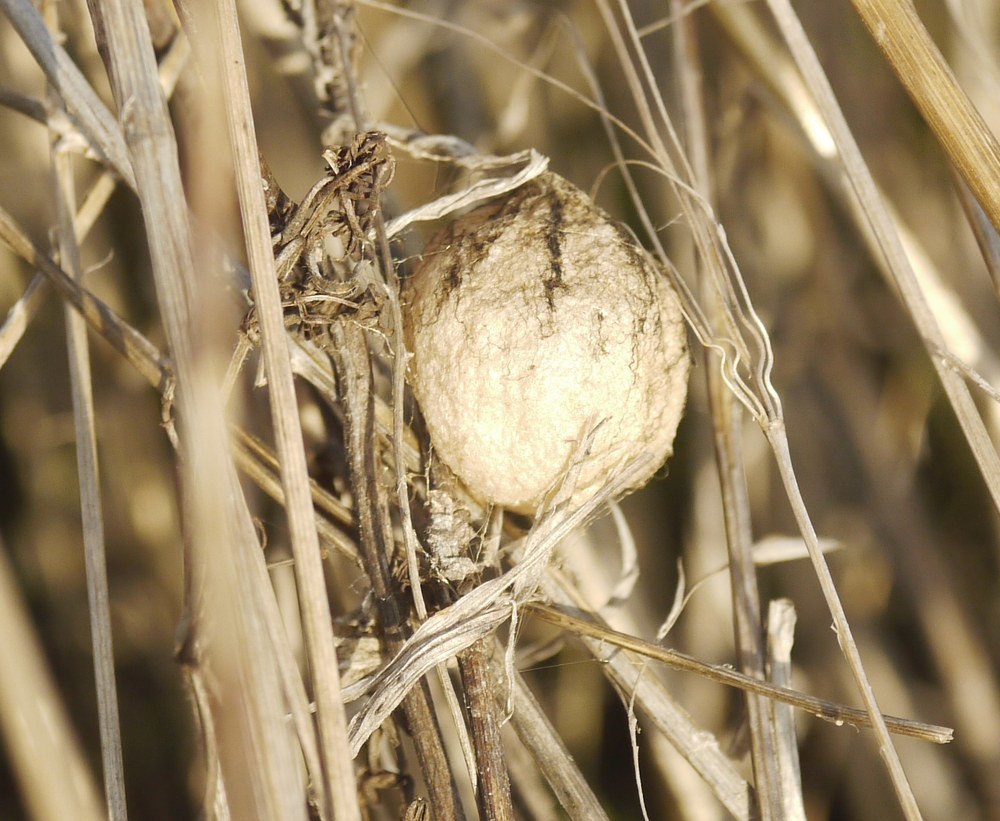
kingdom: Animalia
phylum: Arthropoda
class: Arachnida
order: Araneae
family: Araneidae
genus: Argiope
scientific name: Argiope bruennichi
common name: Wasp spider
